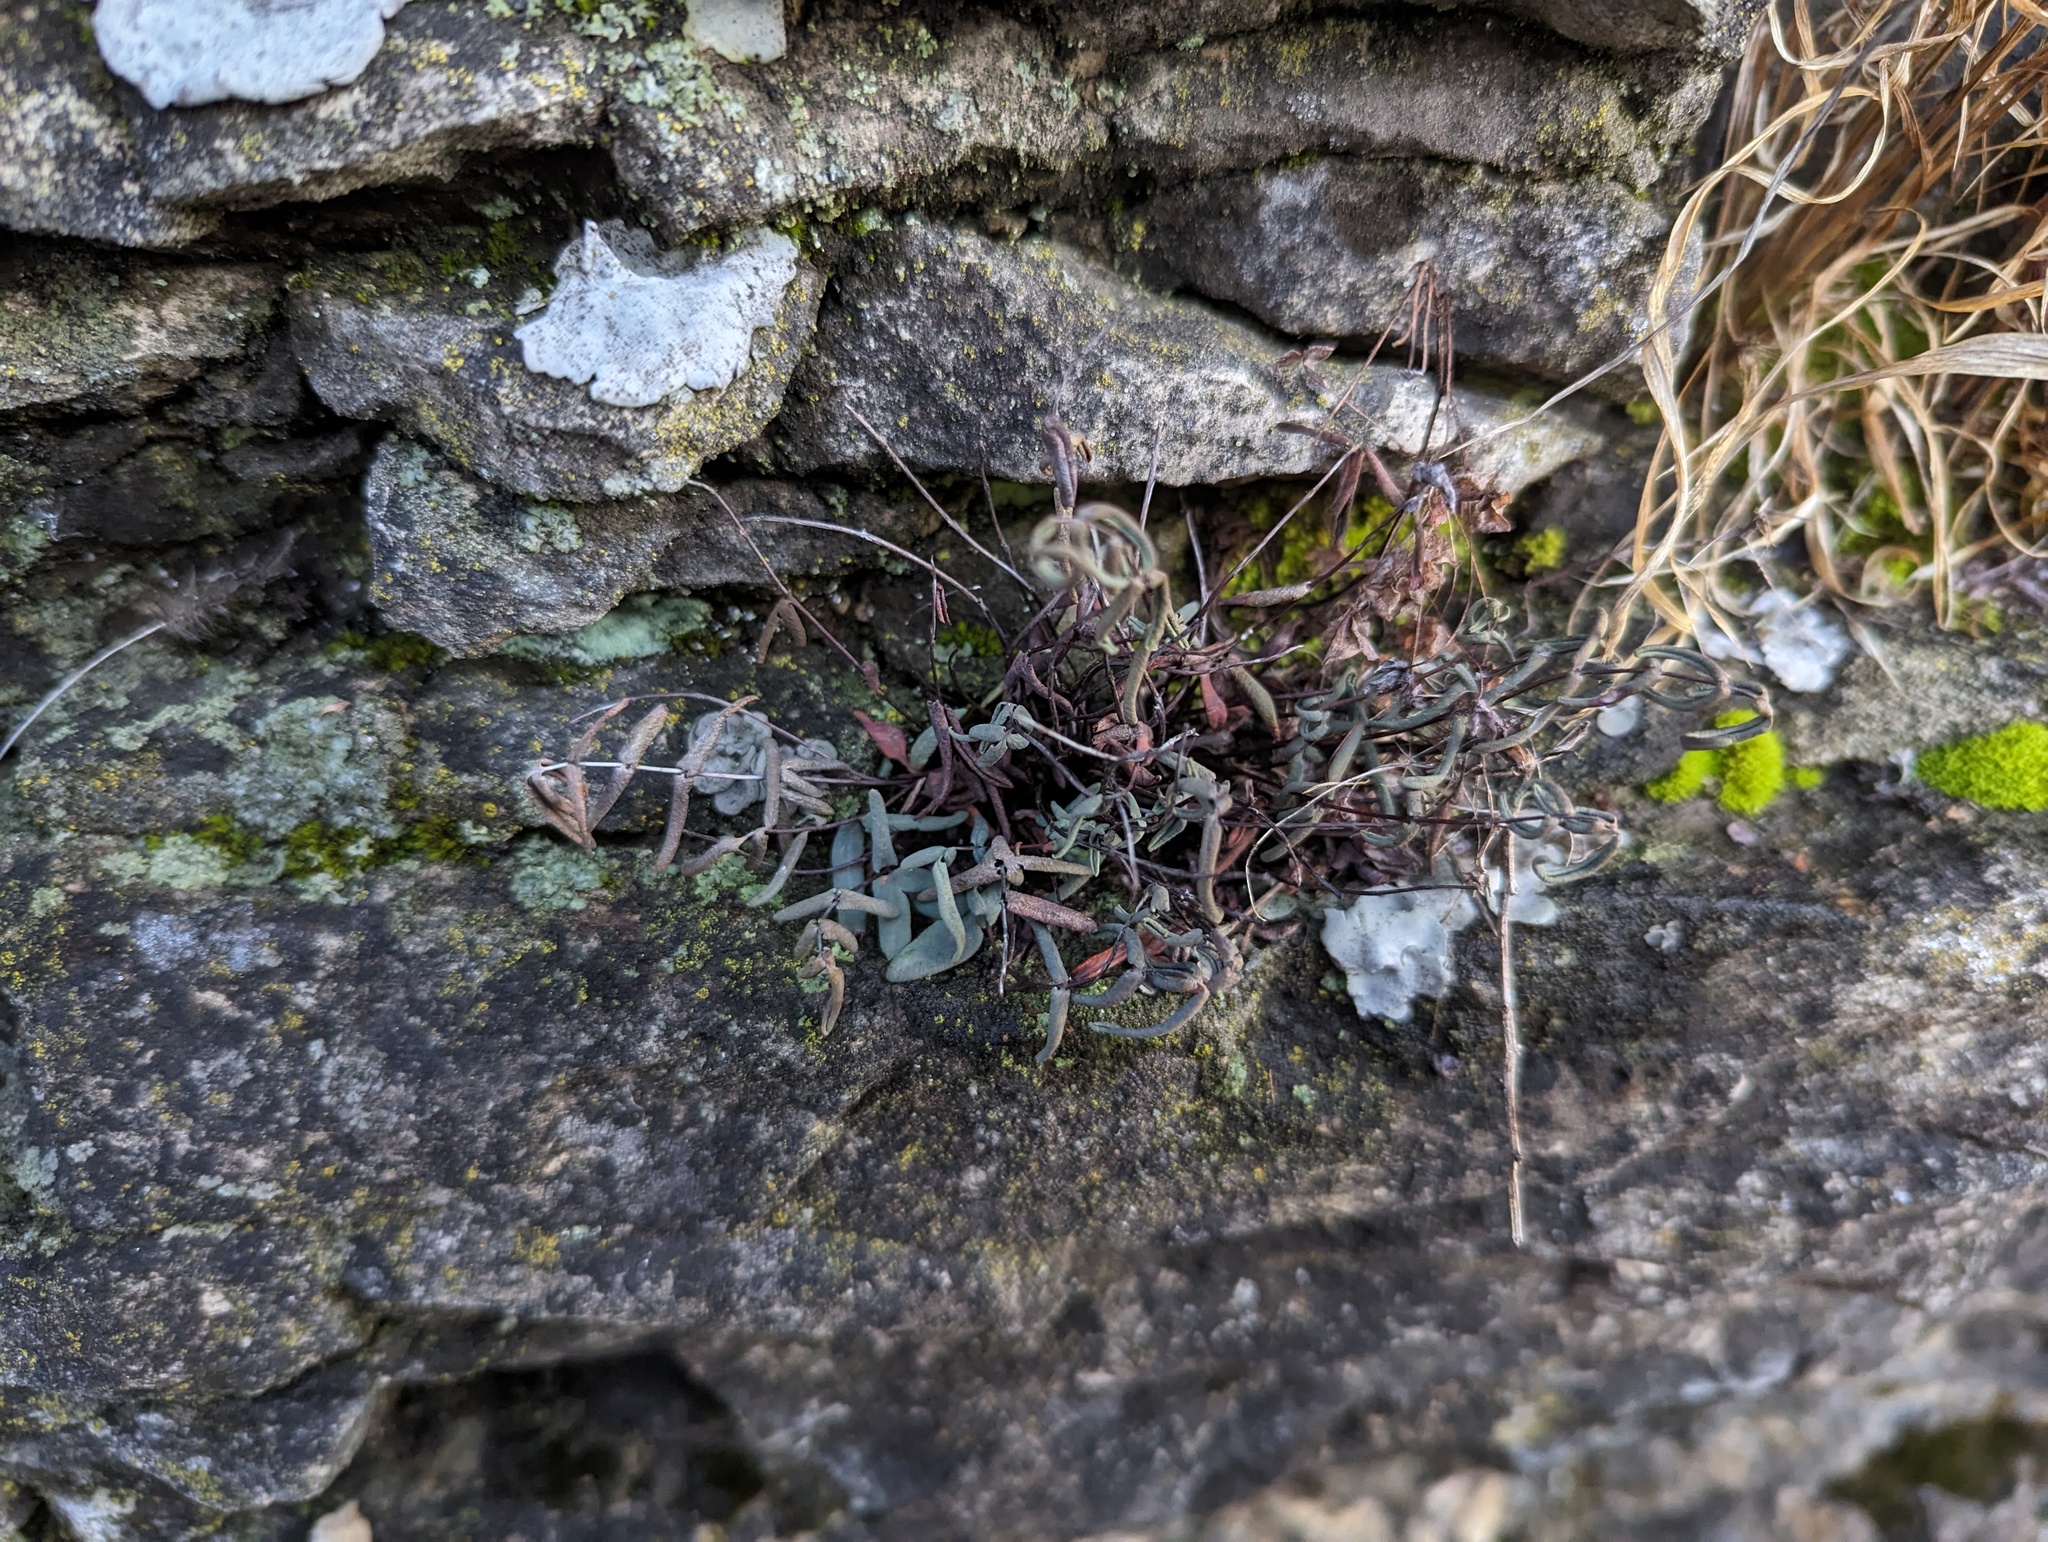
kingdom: Plantae
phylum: Tracheophyta
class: Polypodiopsida
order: Polypodiales
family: Pteridaceae
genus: Pellaea
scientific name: Pellaea glabella
